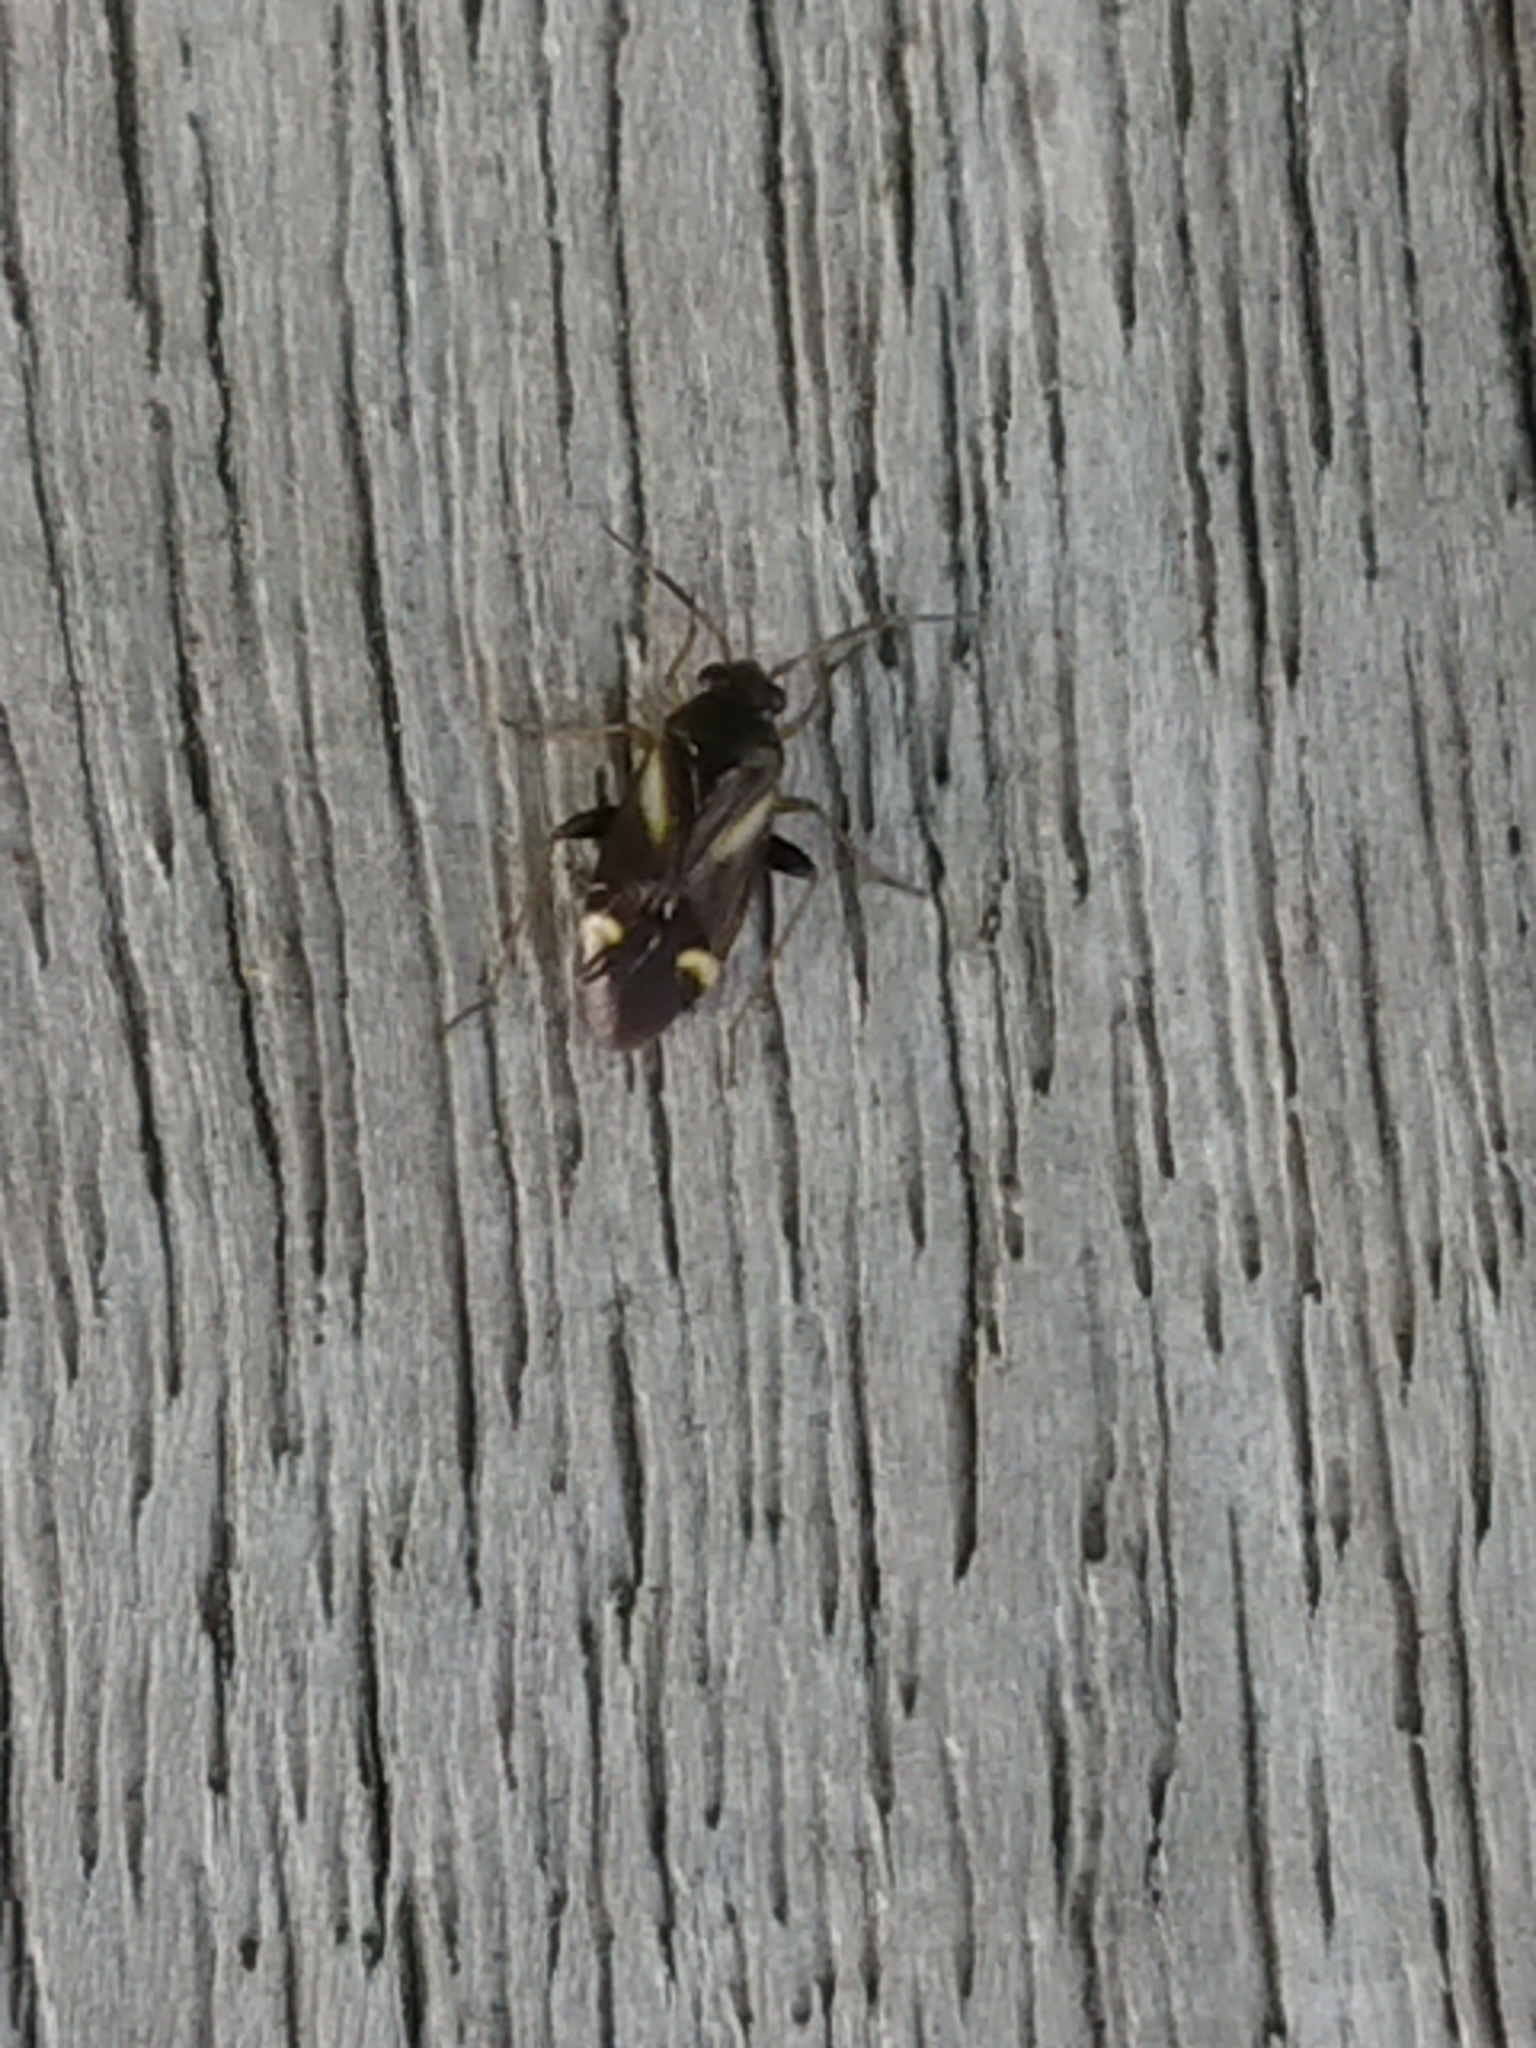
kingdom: Animalia
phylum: Arthropoda
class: Insecta
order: Hemiptera
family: Miridae
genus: Ausejanus
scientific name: Ausejanus albisignatus
